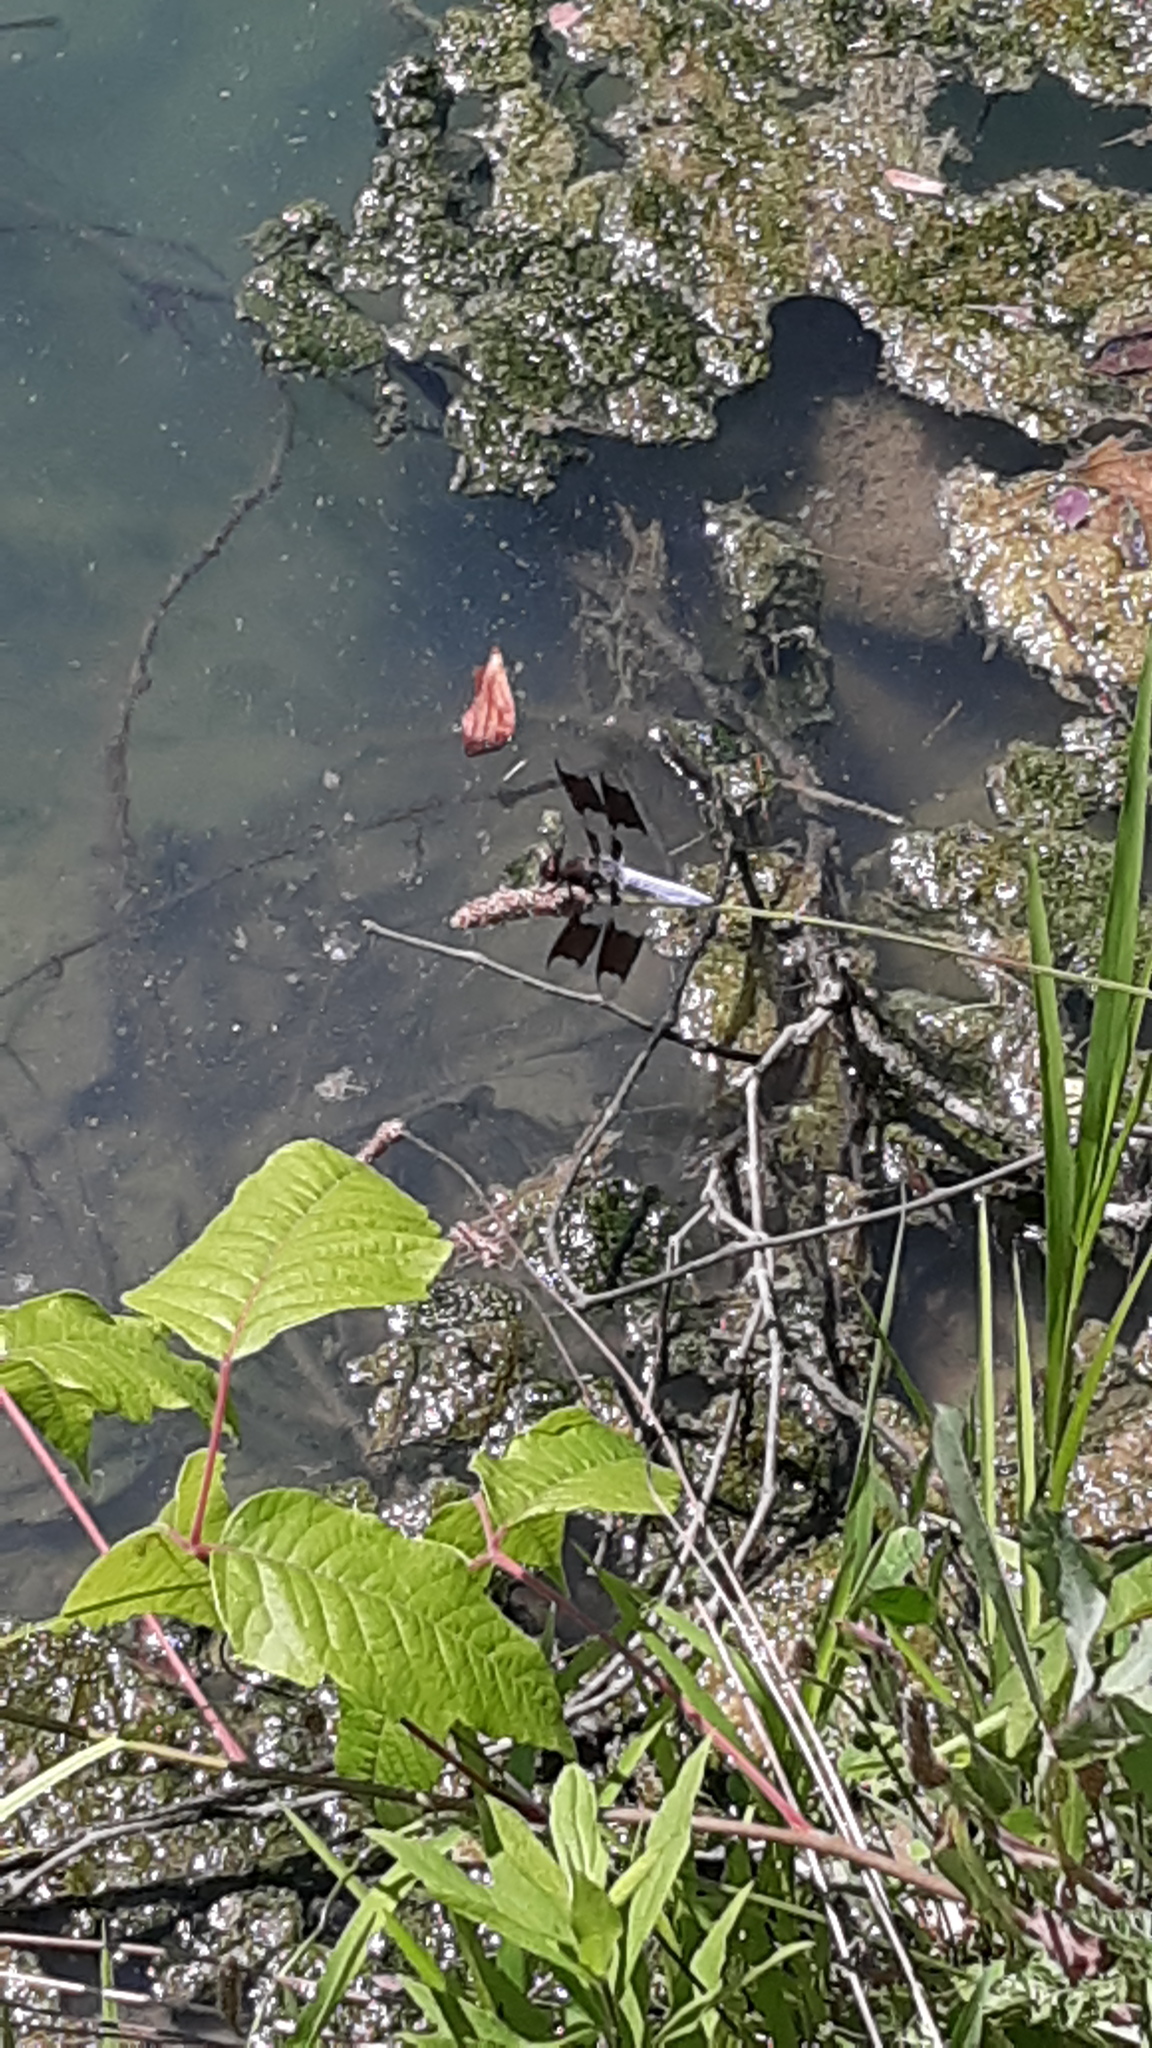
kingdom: Animalia
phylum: Arthropoda
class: Insecta
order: Odonata
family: Libellulidae
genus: Plathemis
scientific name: Plathemis lydia
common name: Common whitetail
